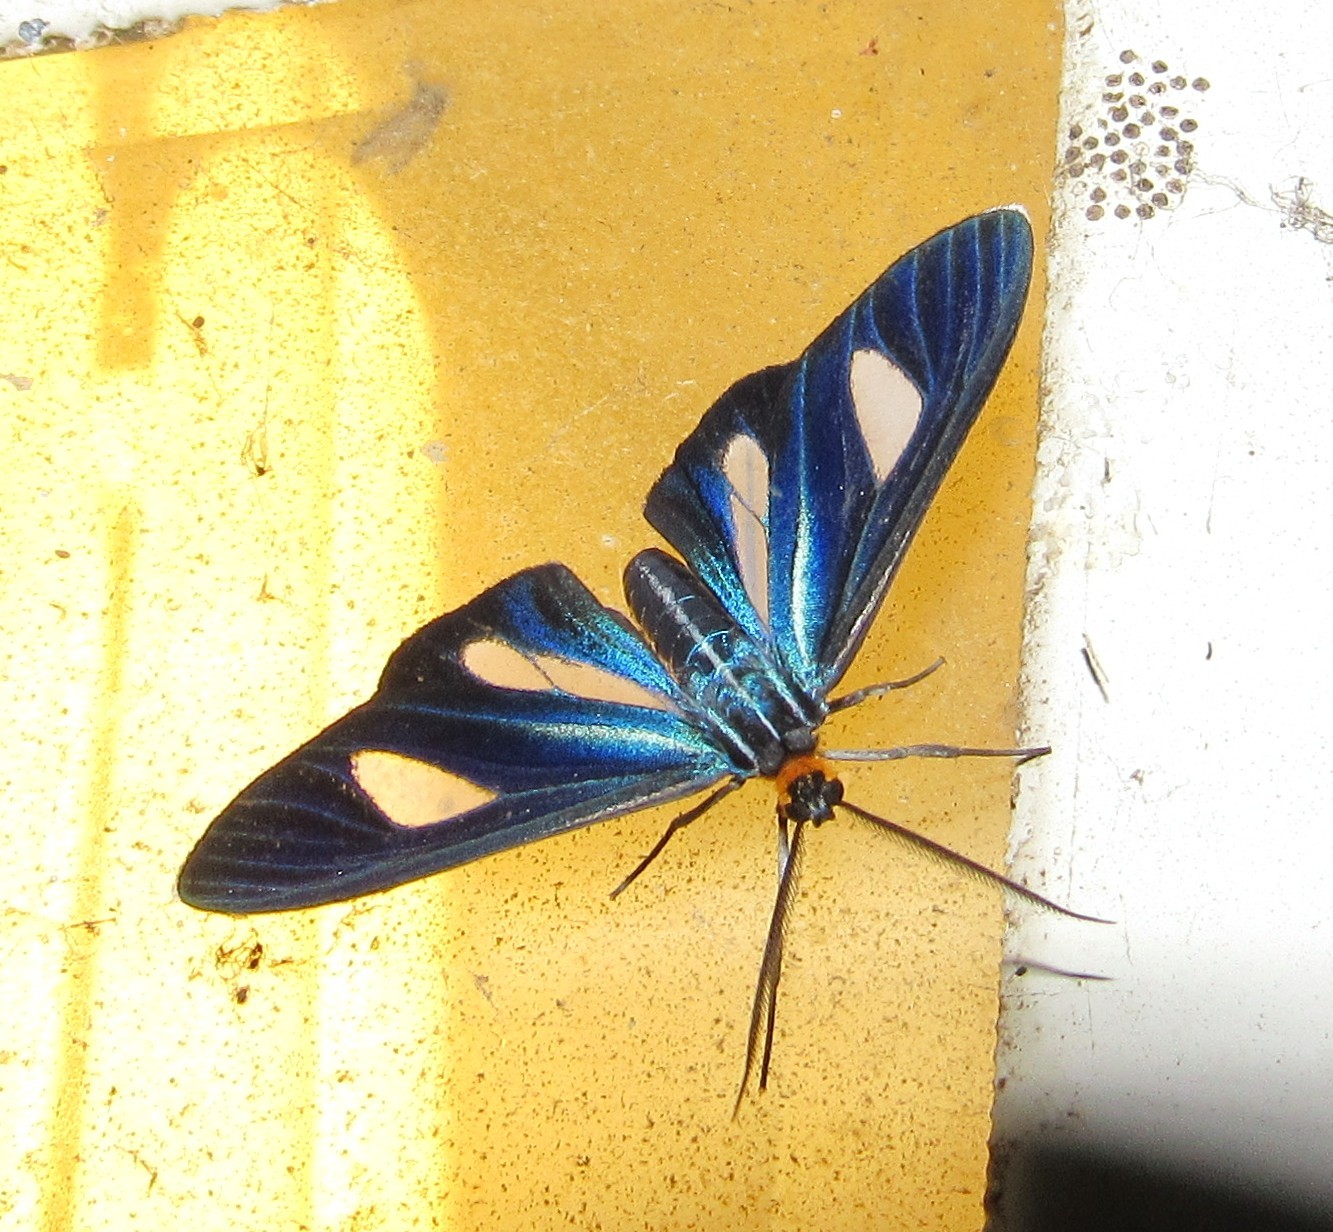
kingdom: Animalia
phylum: Arthropoda
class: Insecta
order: Lepidoptera
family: Erebidae
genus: Euagra
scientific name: Euagra azurea
